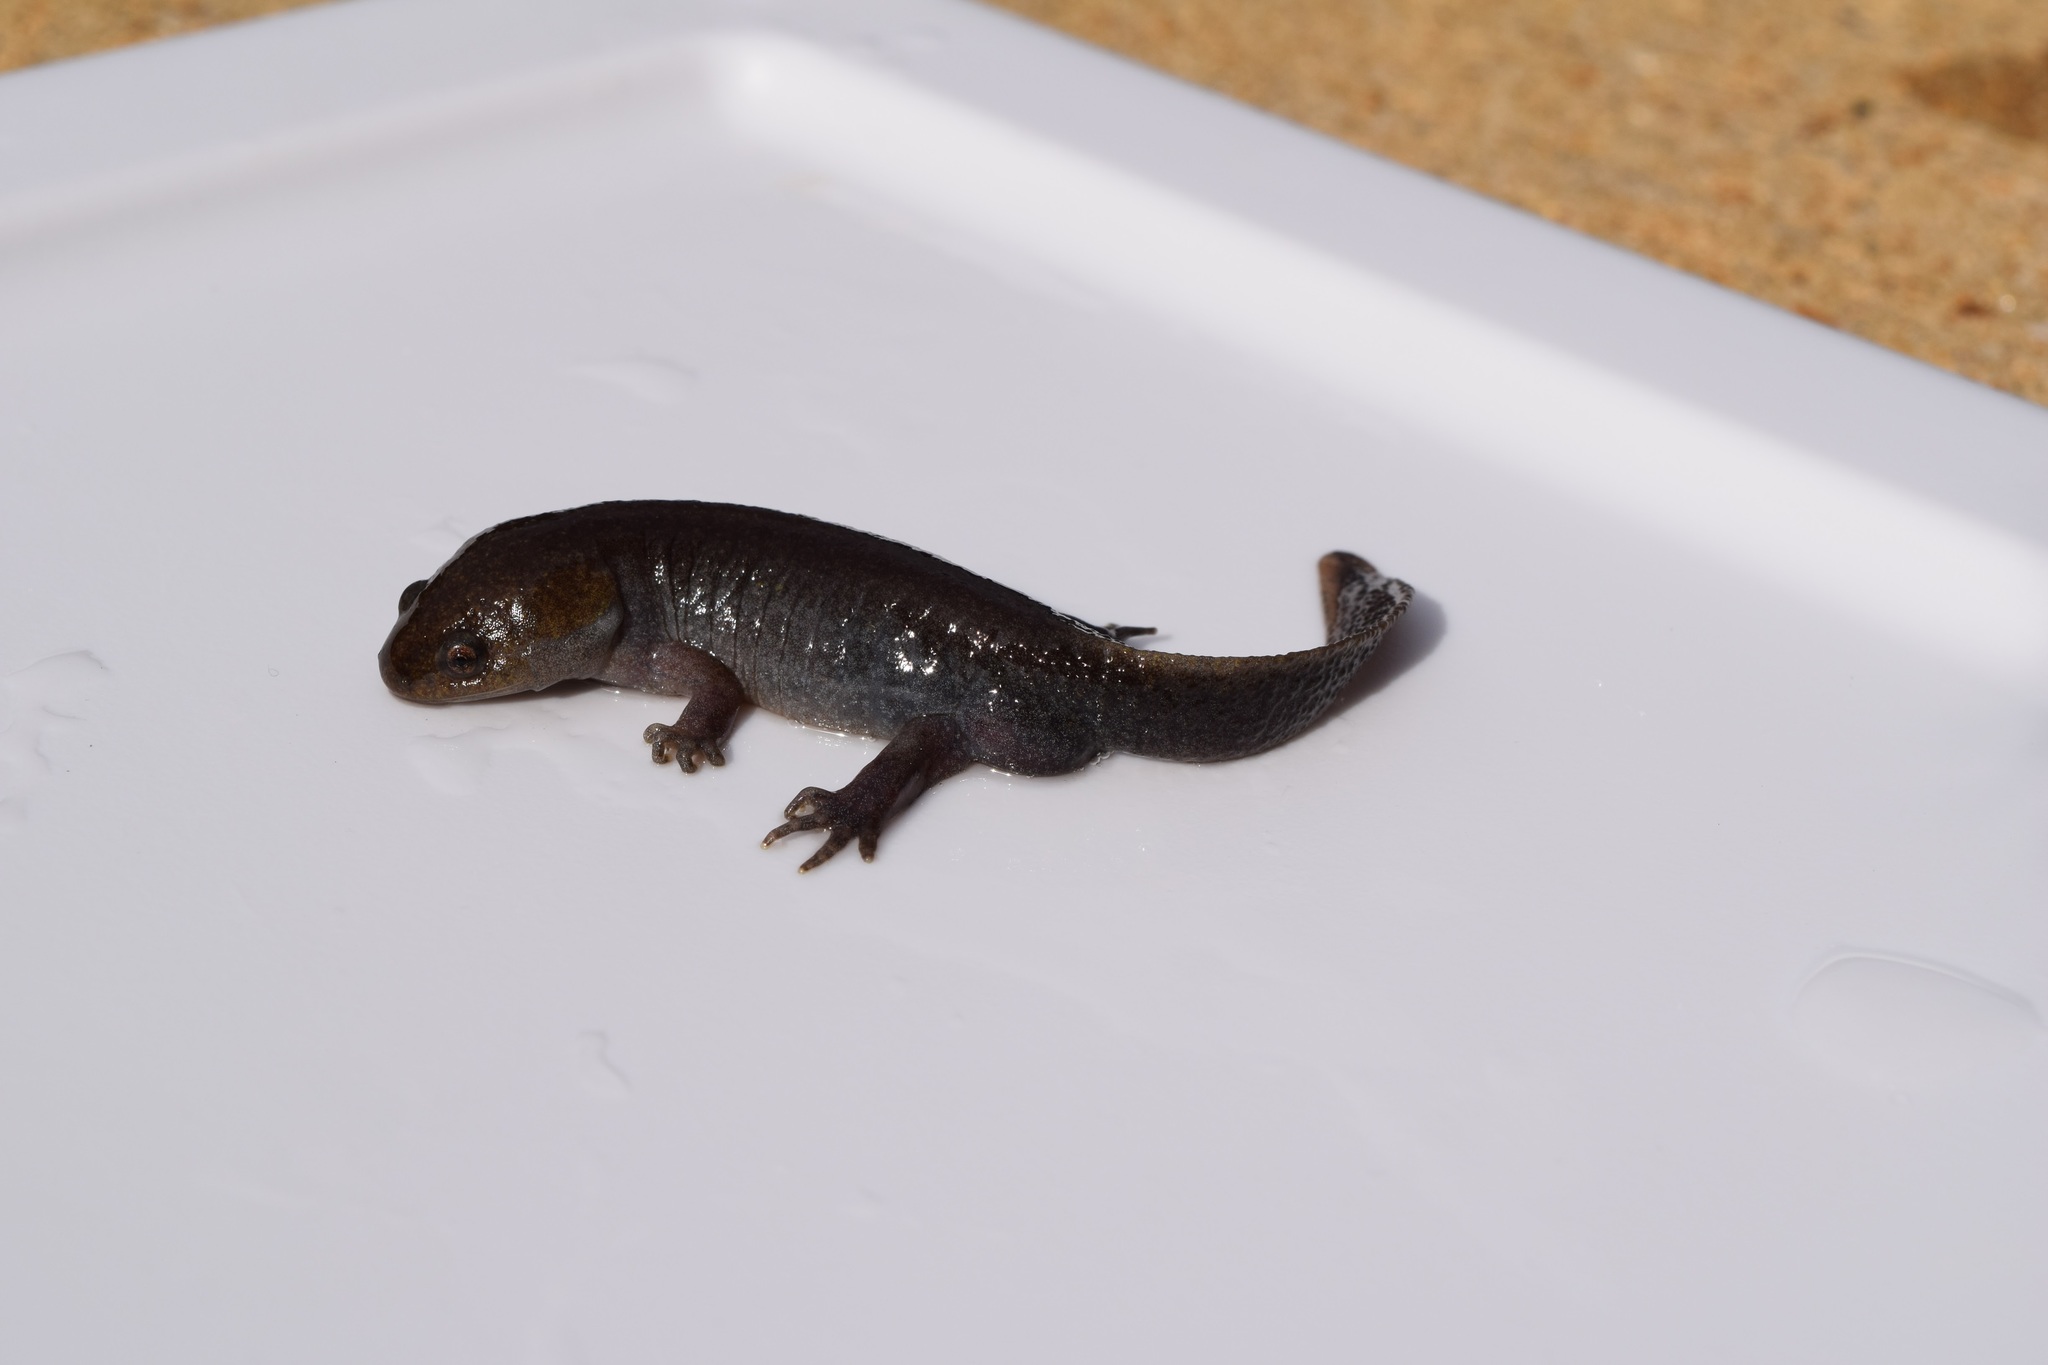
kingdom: Animalia
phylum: Chordata
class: Amphibia
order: Caudata
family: Ambystomatidae
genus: Ambystoma
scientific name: Ambystoma talpoideum
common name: Mole salamander
